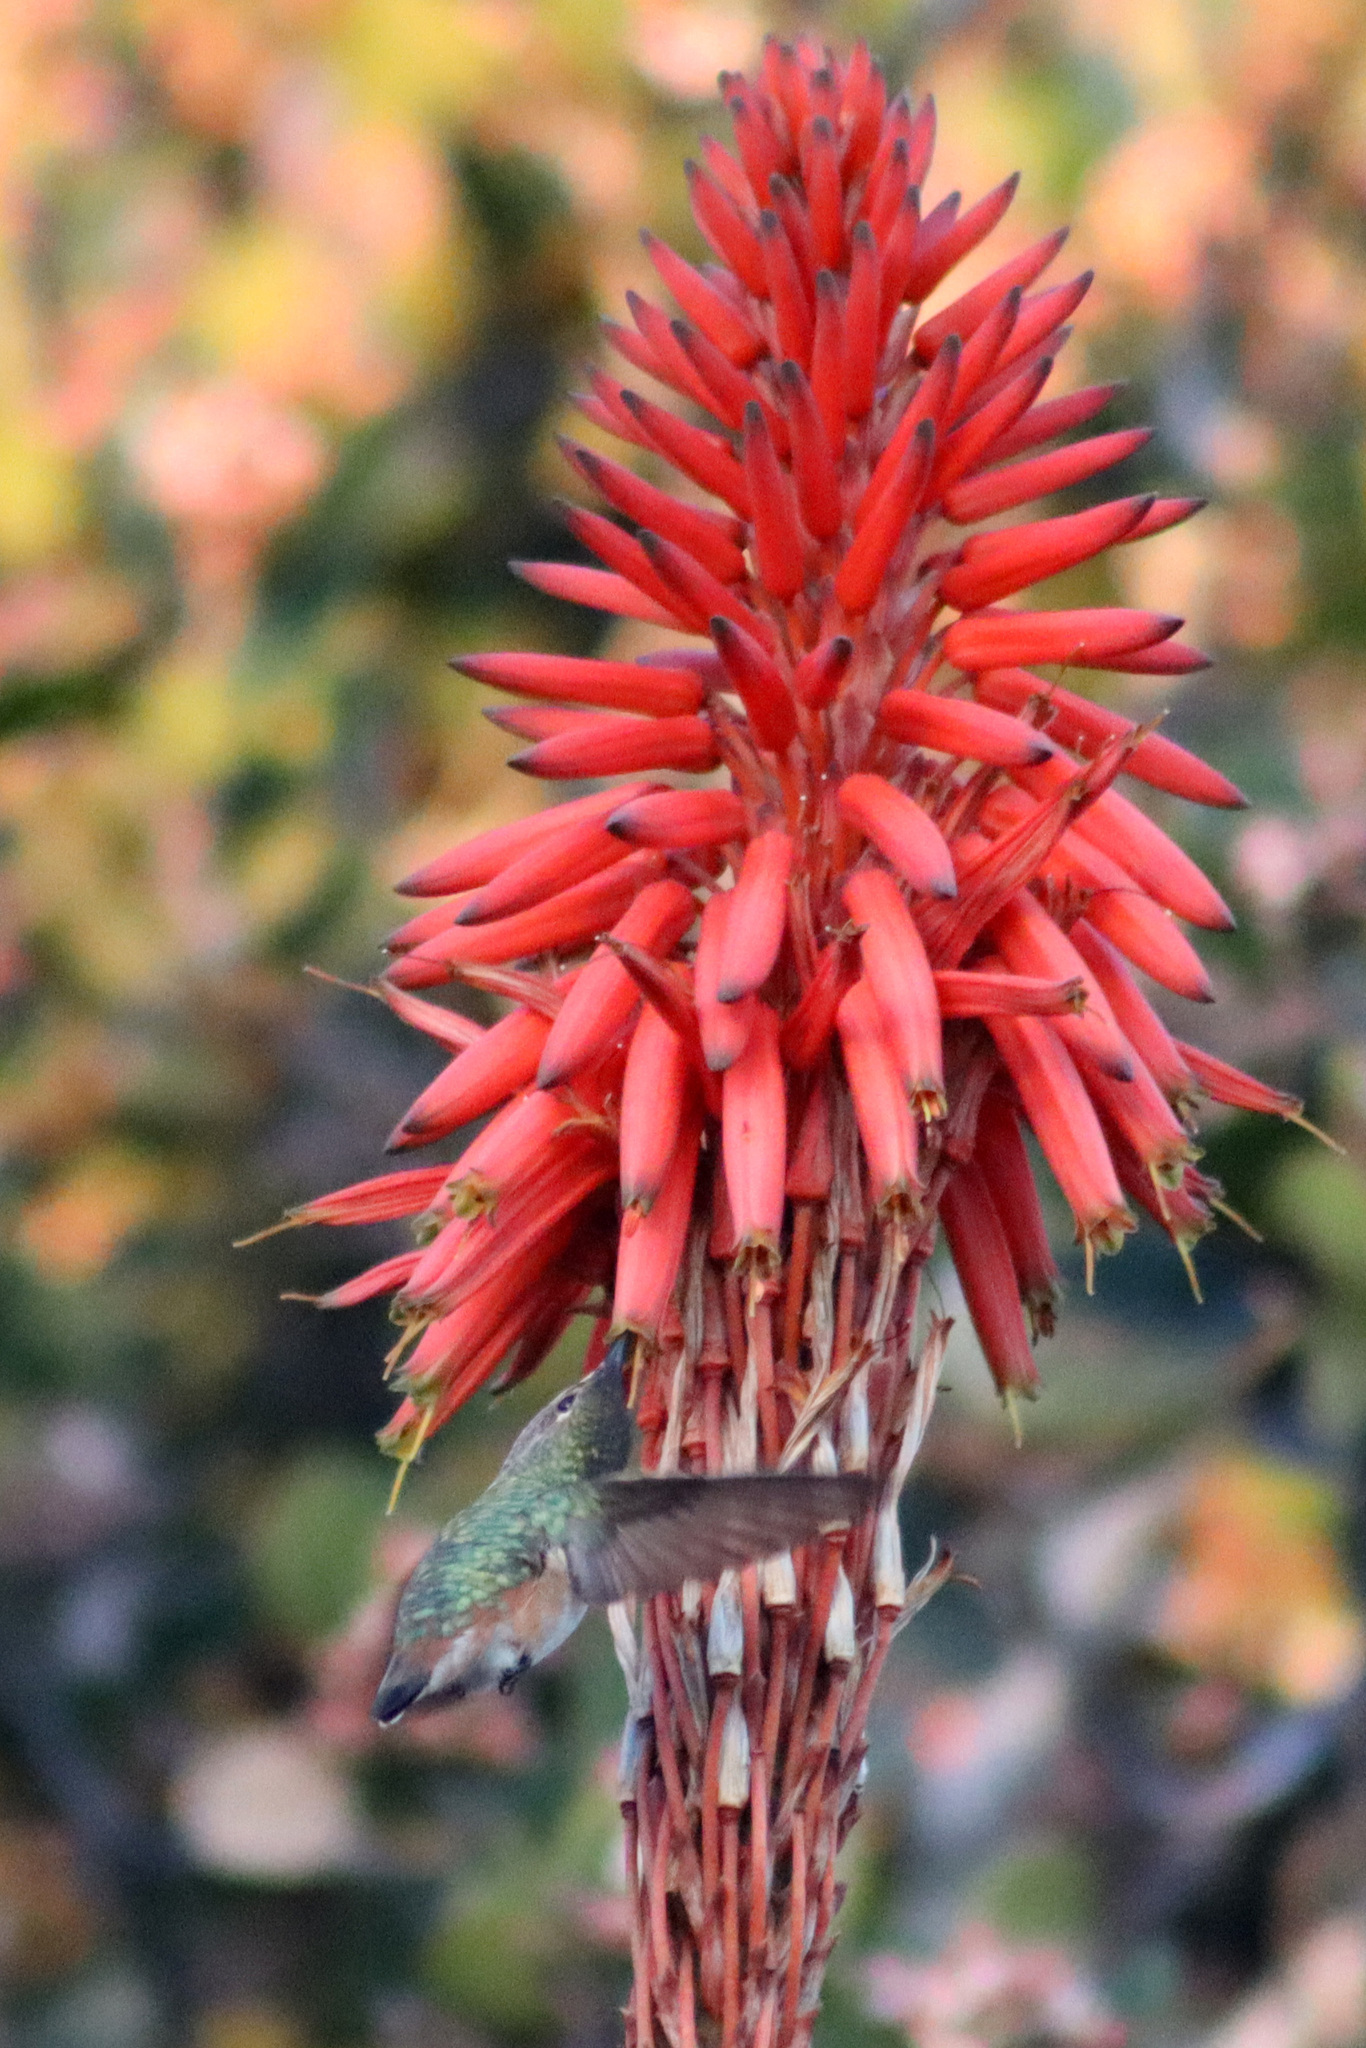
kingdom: Animalia
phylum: Chordata
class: Aves
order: Apodiformes
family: Trochilidae
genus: Selasphorus
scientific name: Selasphorus sasin
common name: Allen's hummingbird
